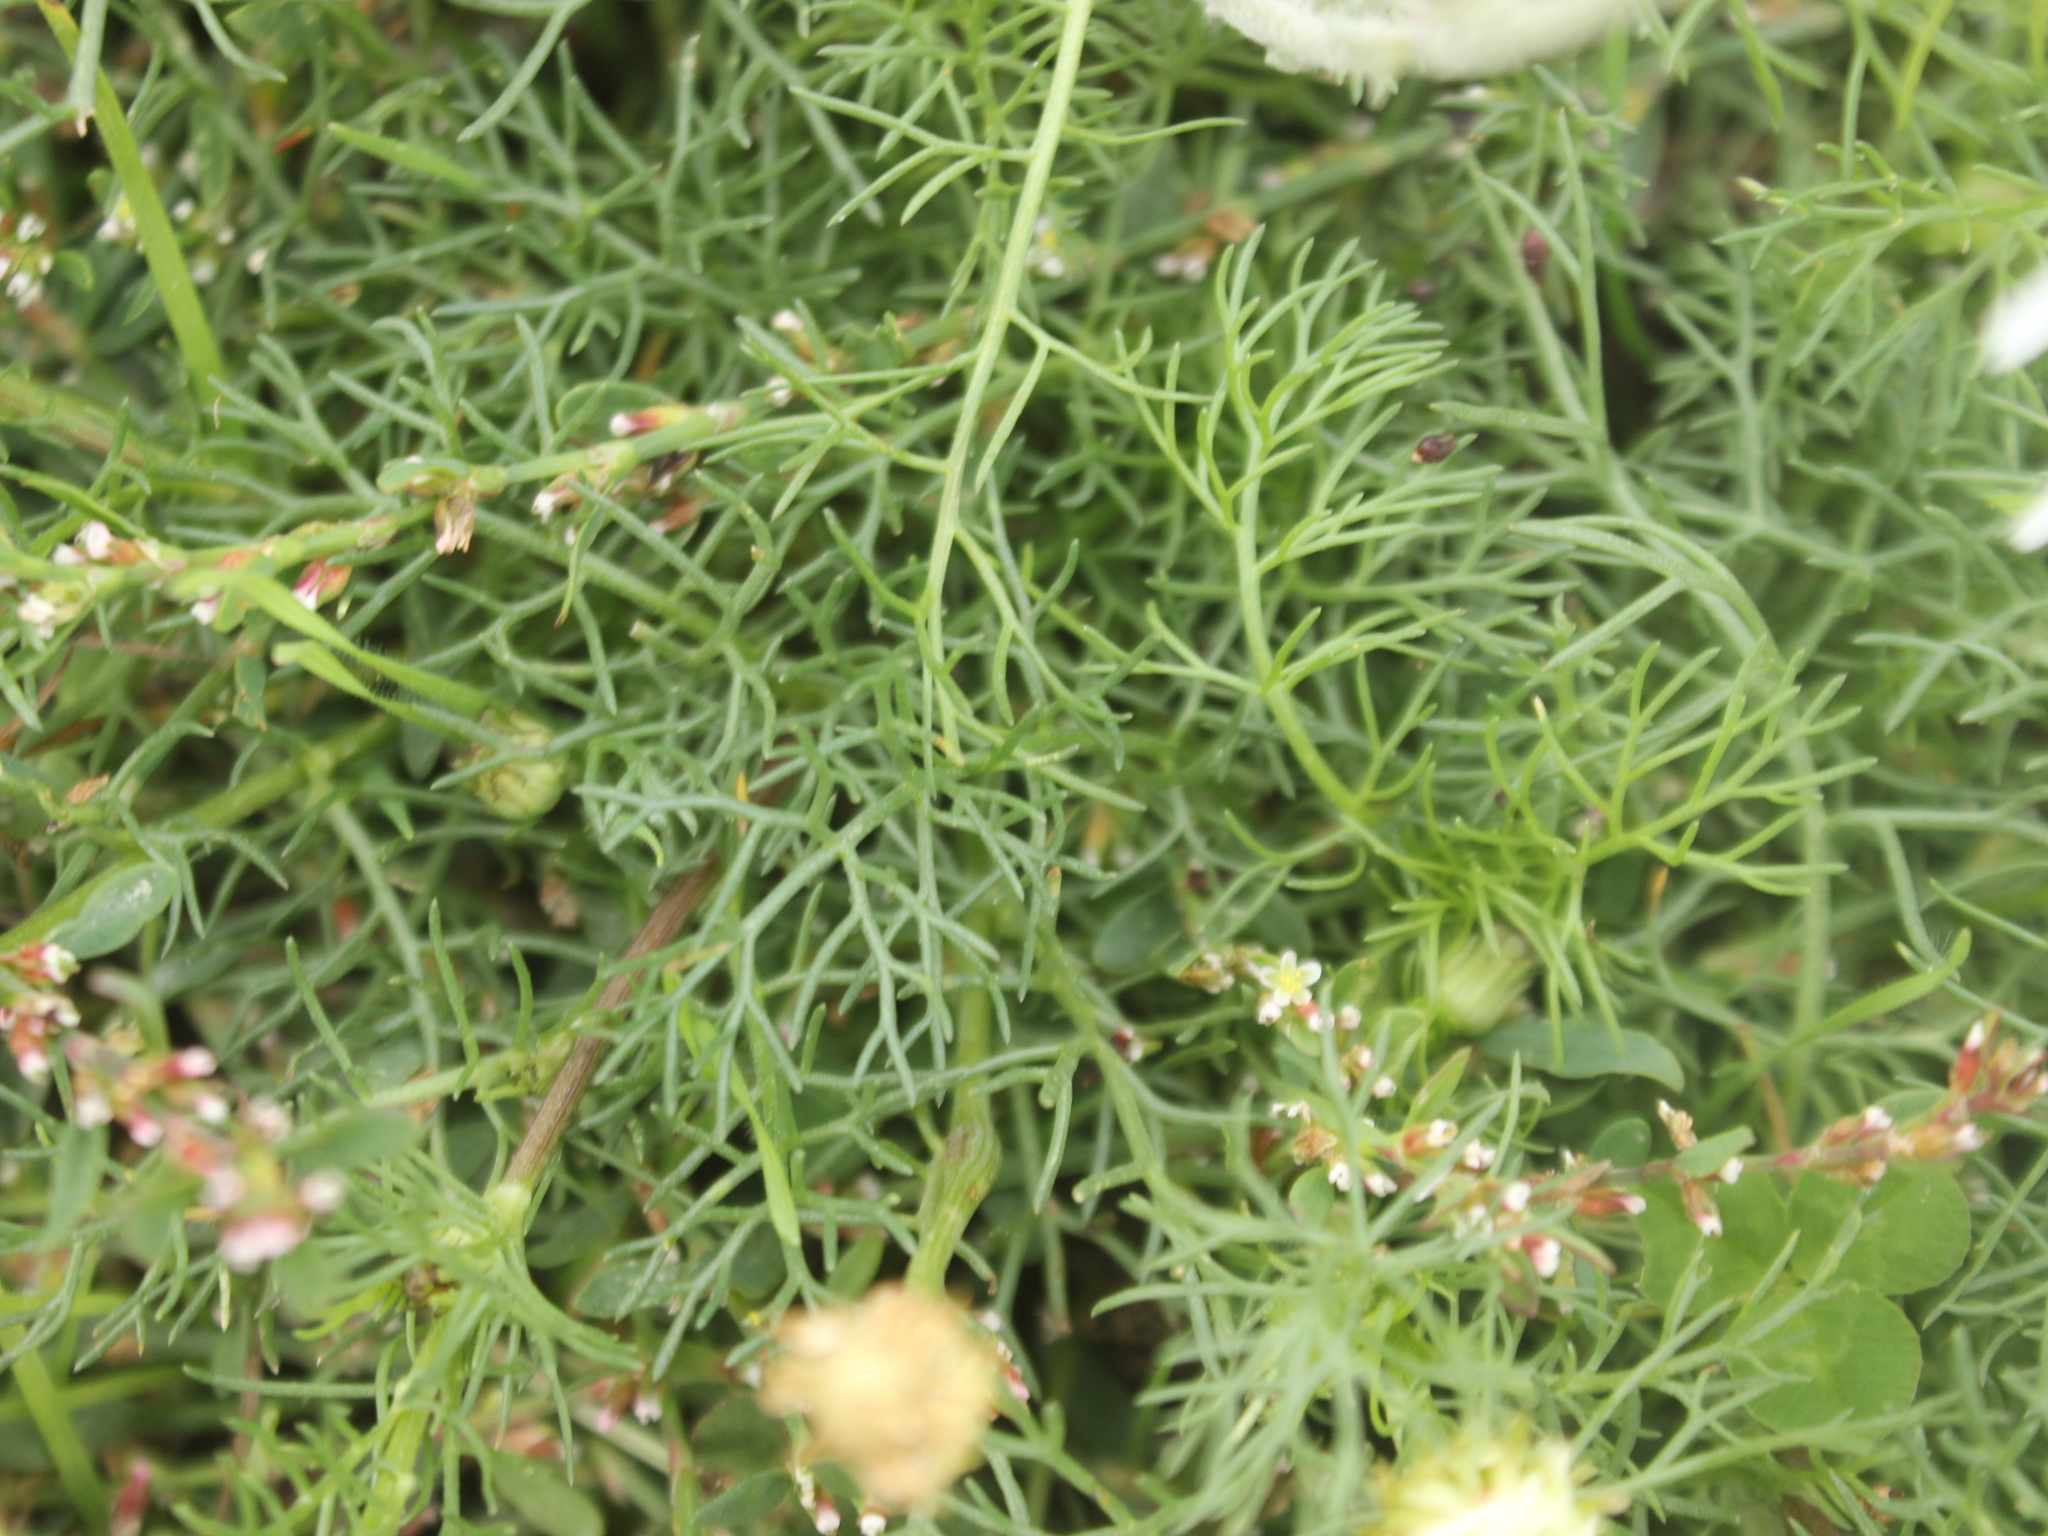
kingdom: Plantae
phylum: Tracheophyta
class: Magnoliopsida
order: Asterales
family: Asteraceae
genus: Tripleurospermum
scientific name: Tripleurospermum inodorum
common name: Scentless mayweed
